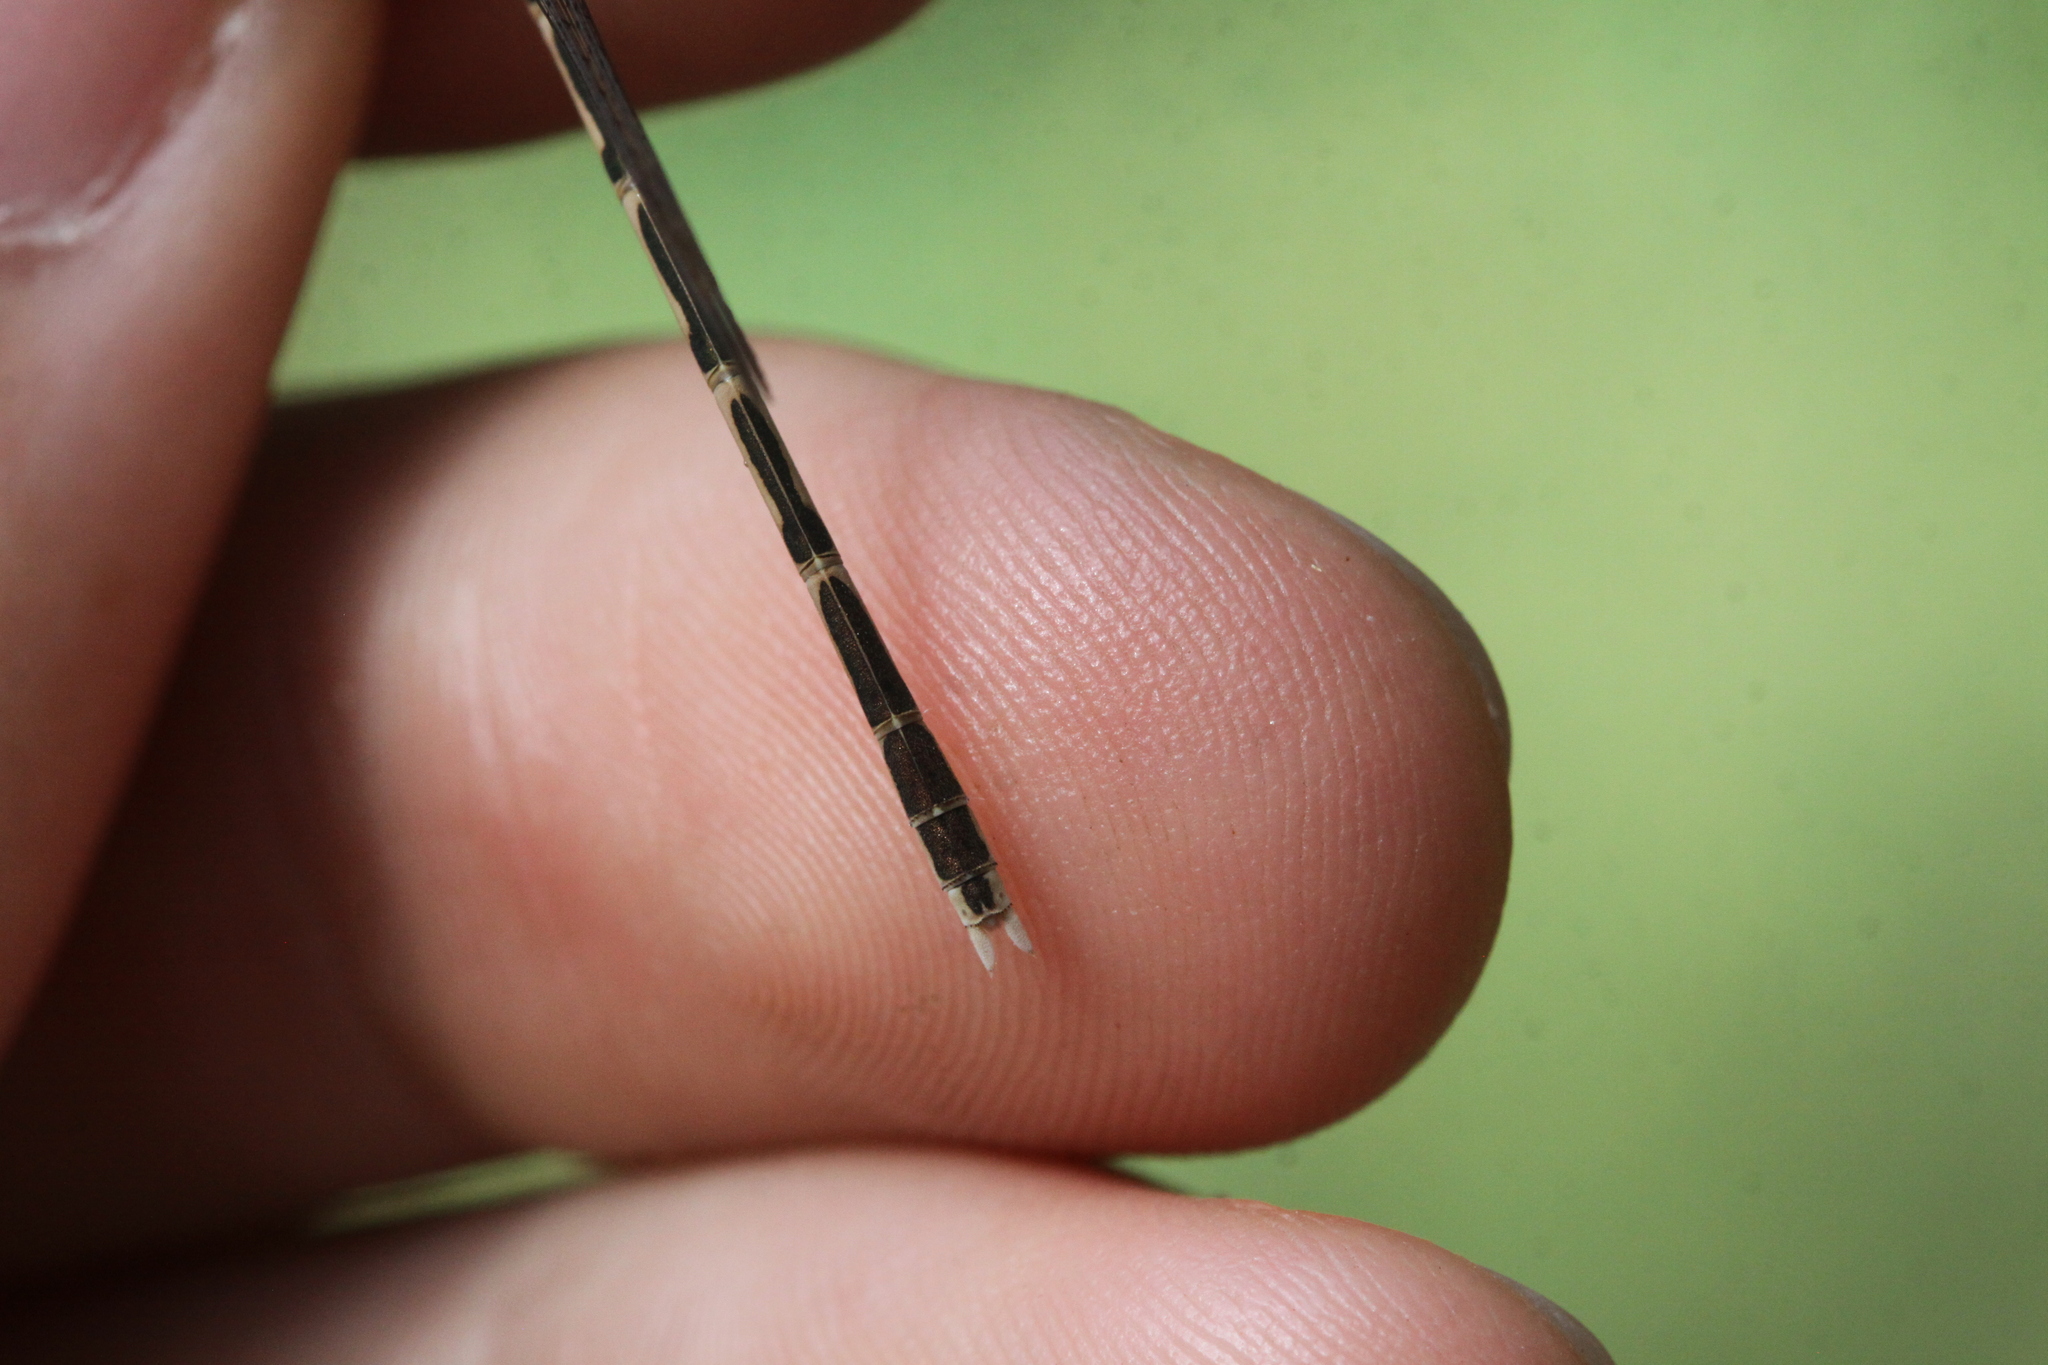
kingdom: Animalia
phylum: Arthropoda
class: Insecta
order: Odonata
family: Lestidae
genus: Sympecma
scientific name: Sympecma fusca
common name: Common winter damsel
